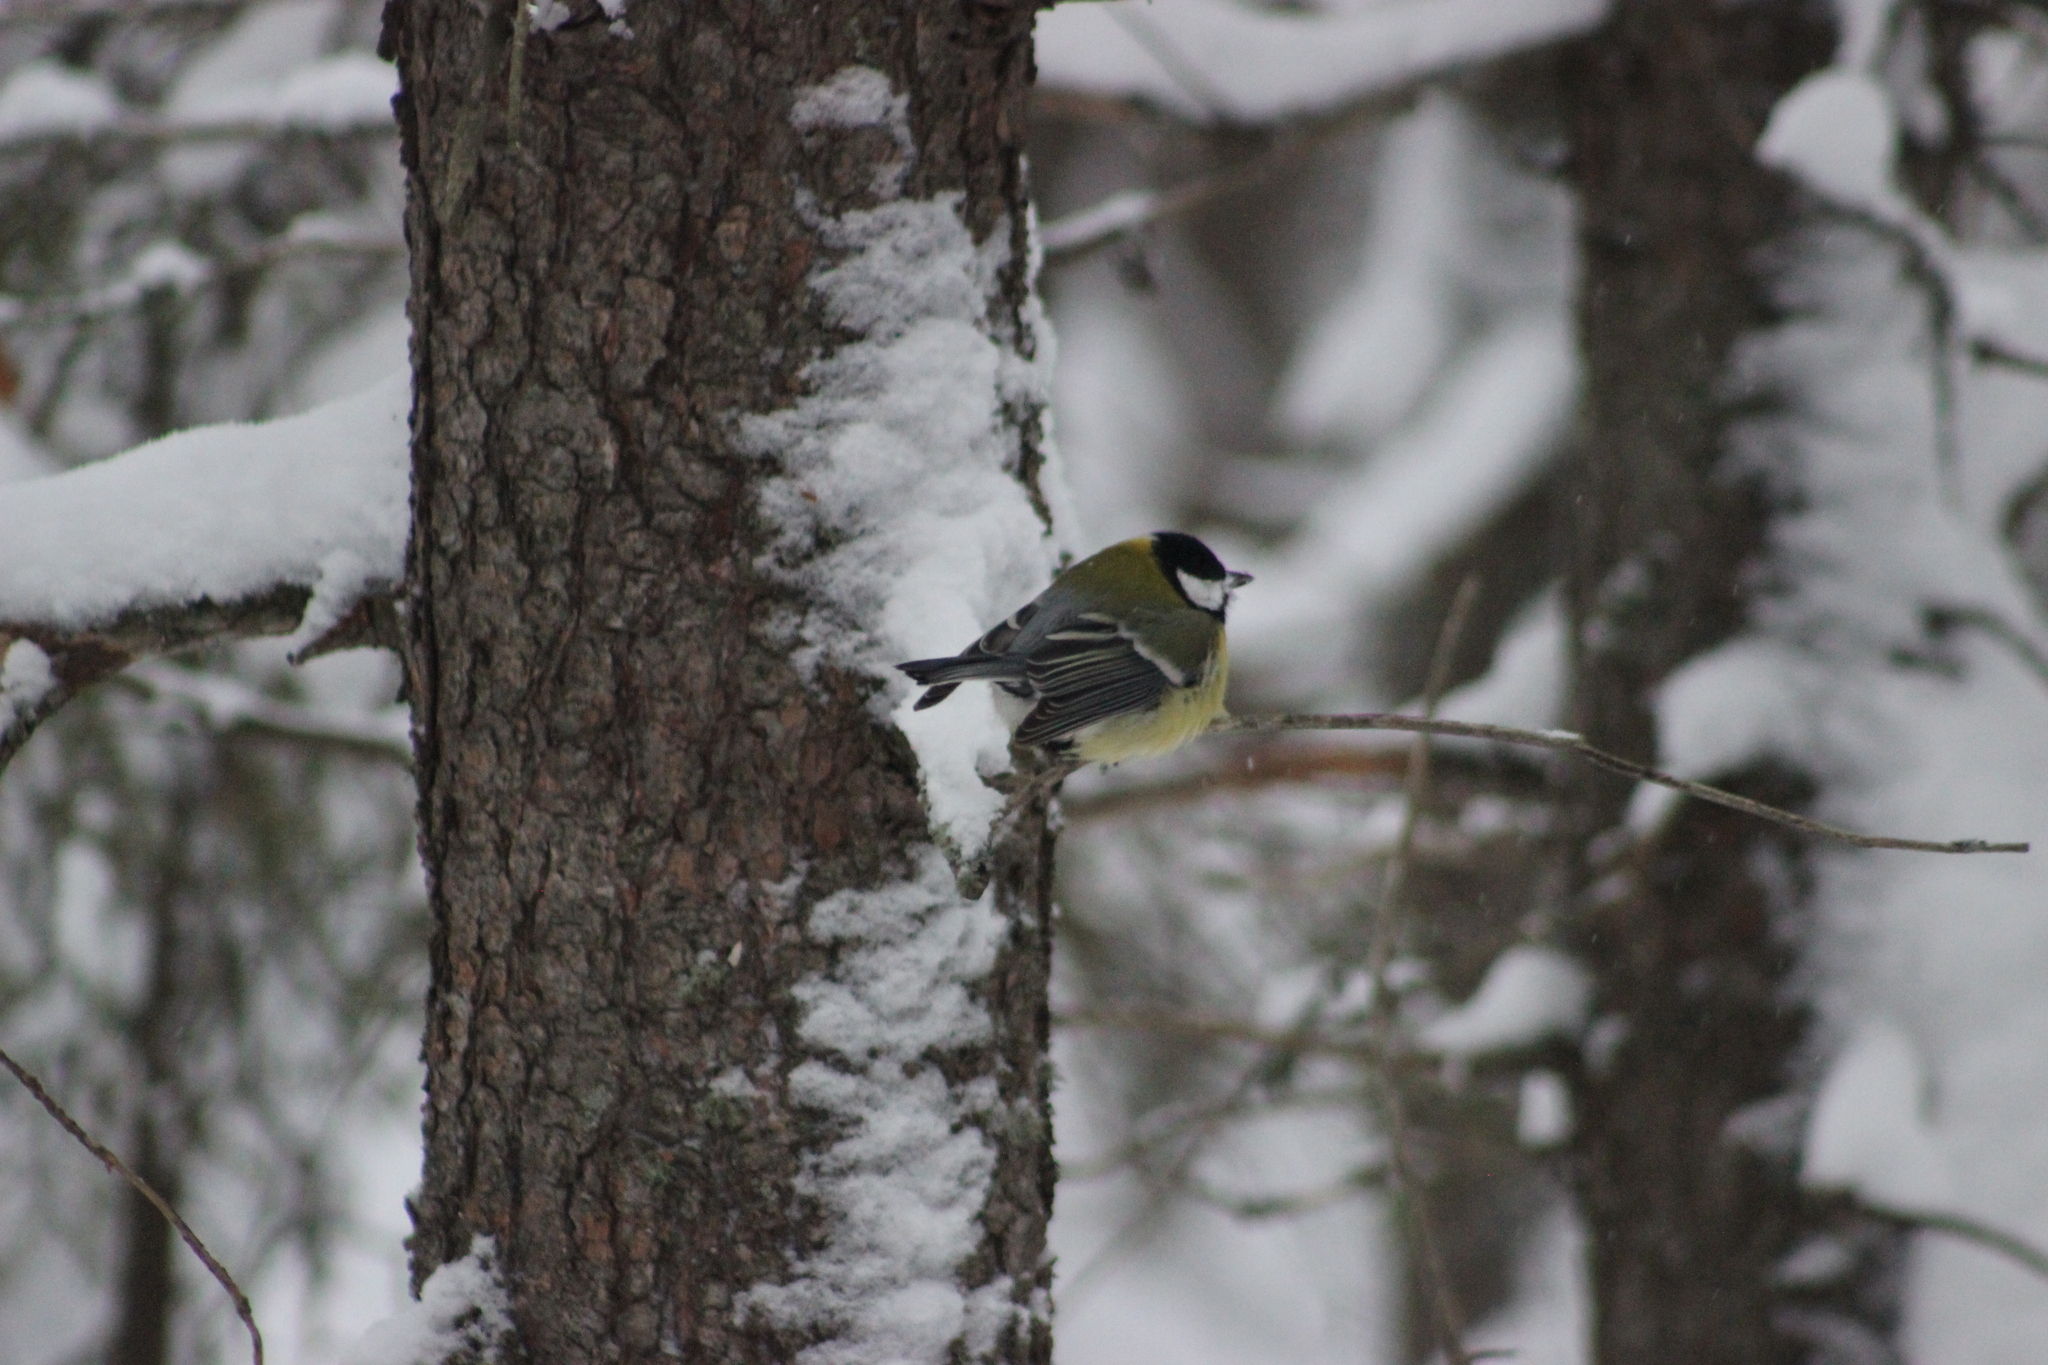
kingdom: Animalia
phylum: Chordata
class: Aves
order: Passeriformes
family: Paridae
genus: Parus
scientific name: Parus major
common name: Great tit
